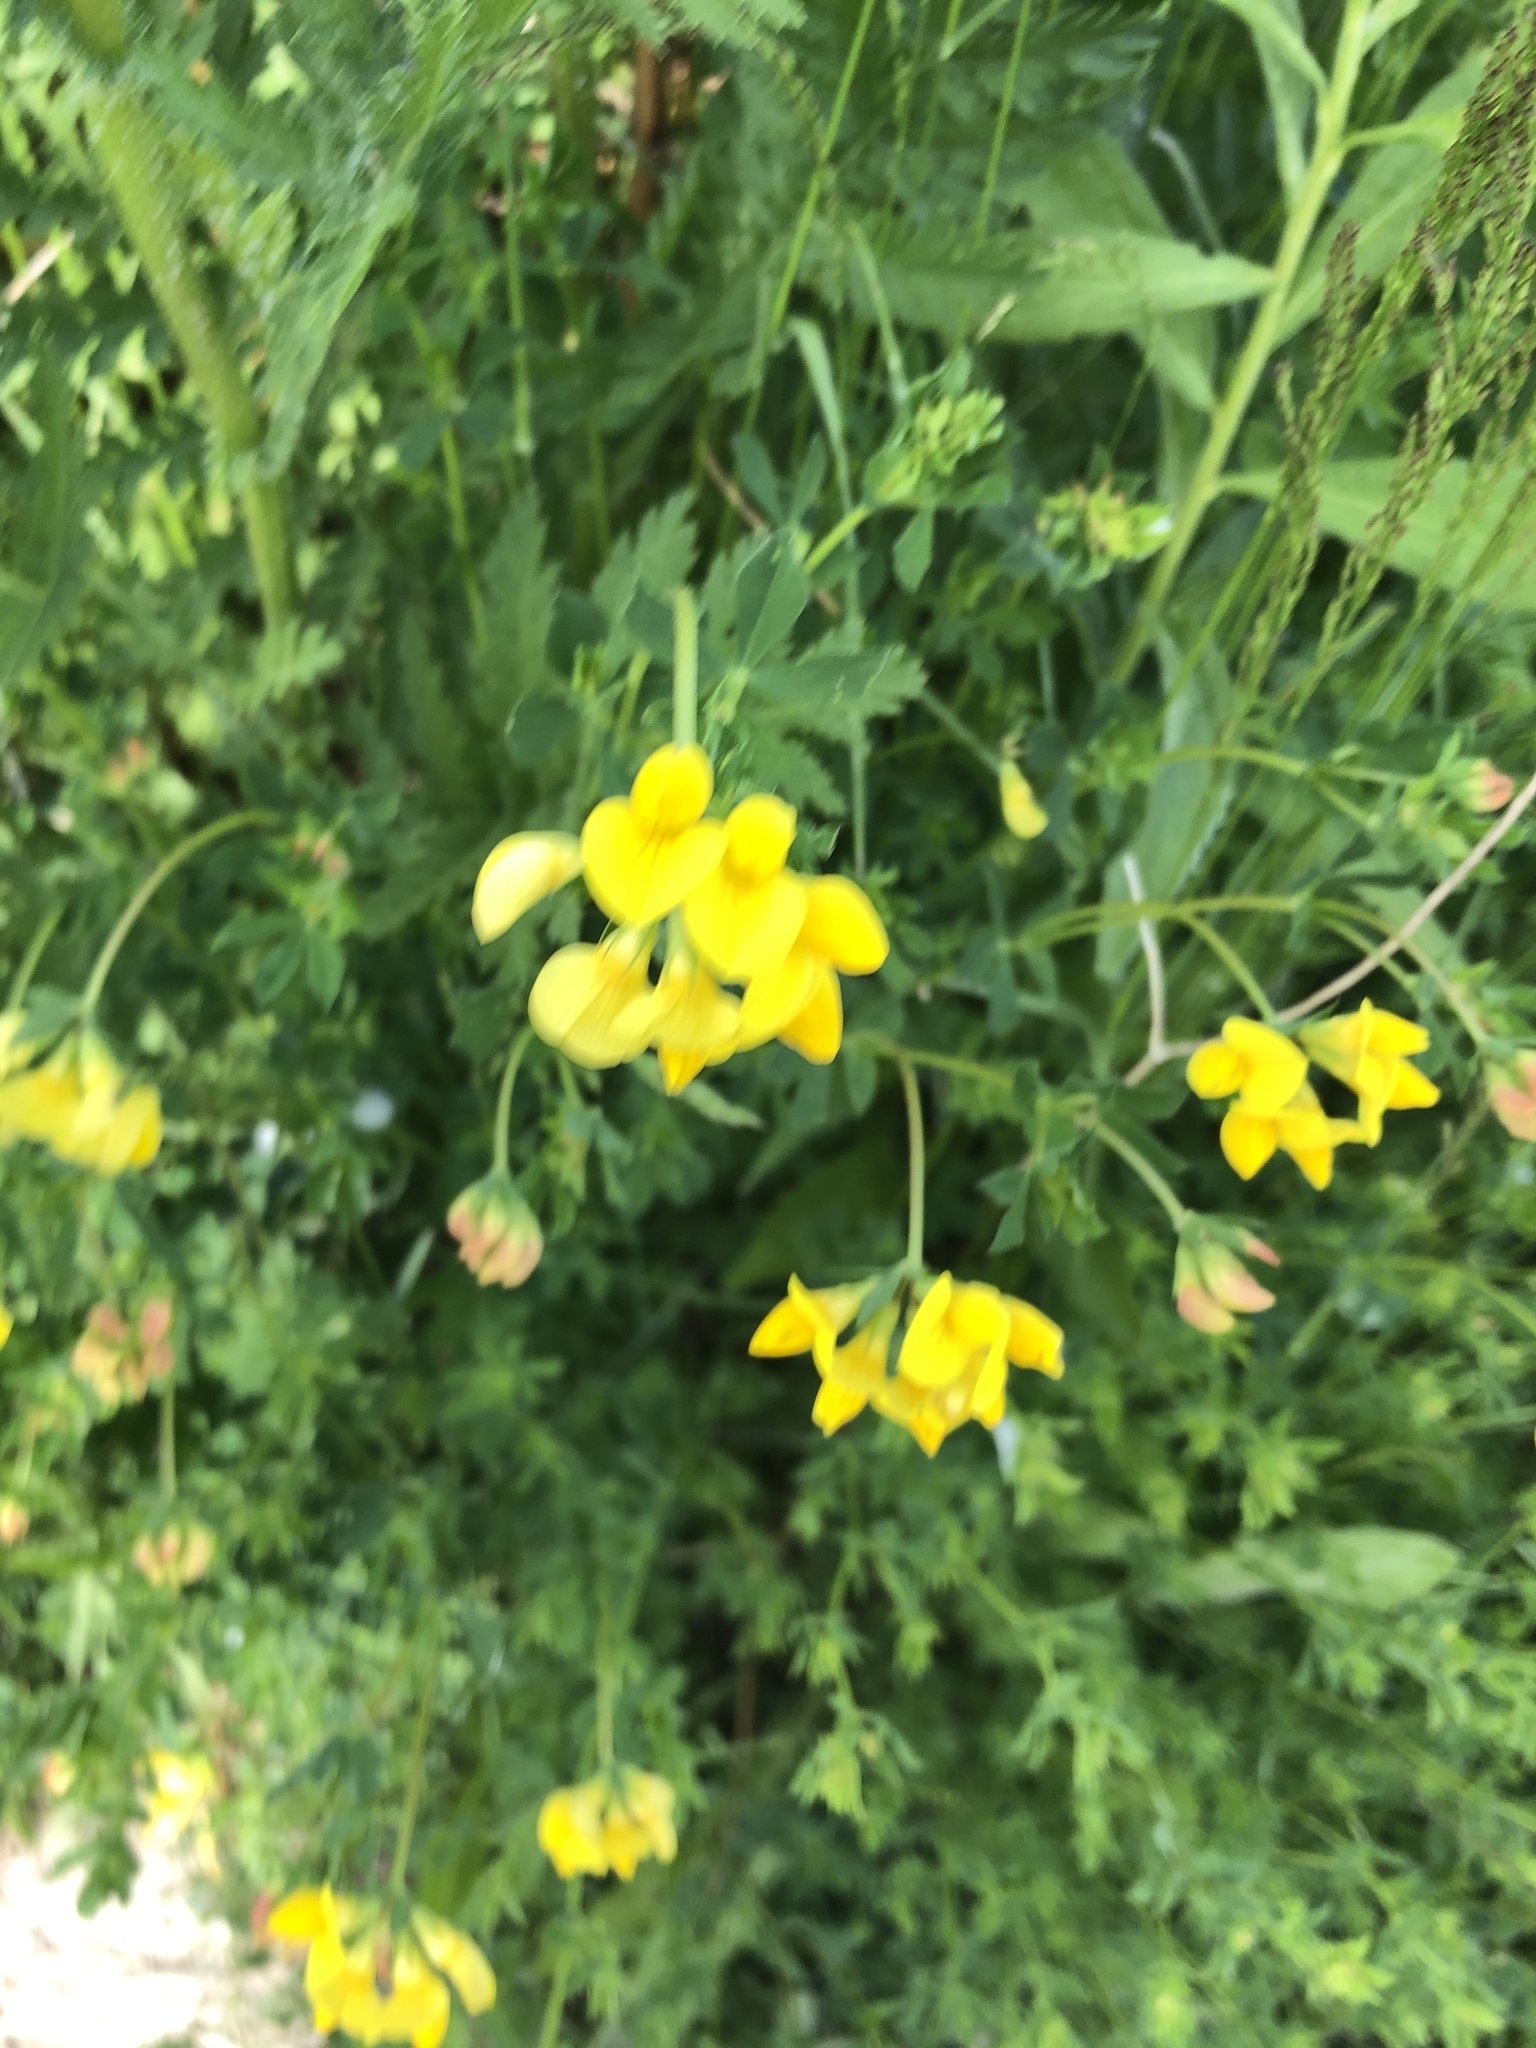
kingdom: Plantae
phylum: Tracheophyta
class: Magnoliopsida
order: Fabales
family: Fabaceae
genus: Lotus
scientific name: Lotus corniculatus
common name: Common bird's-foot-trefoil
